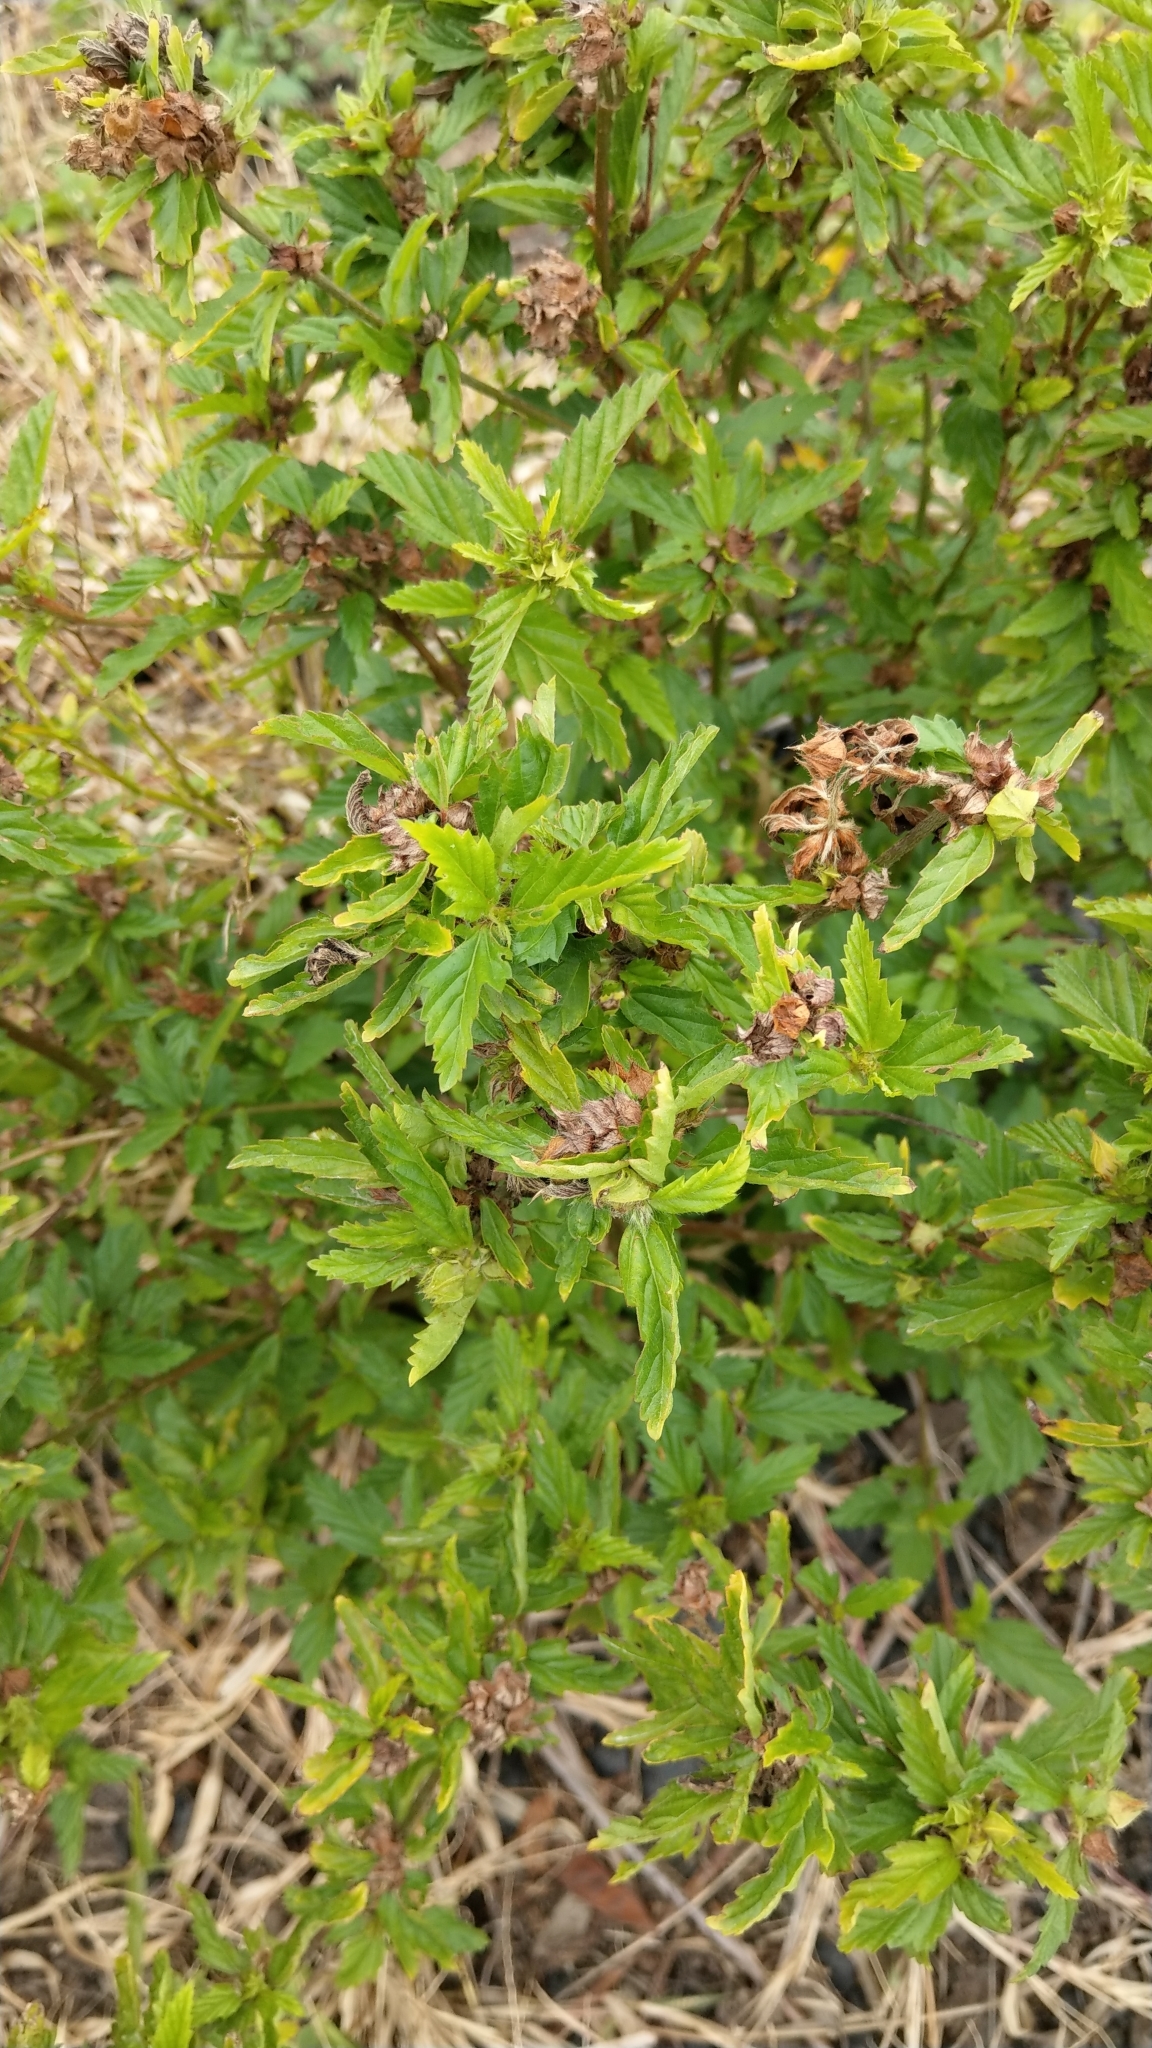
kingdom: Plantae
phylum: Tracheophyta
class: Magnoliopsida
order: Malvales
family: Malvaceae
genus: Malvastrum
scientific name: Malvastrum coromandelianum
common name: Threelobe false mallow
